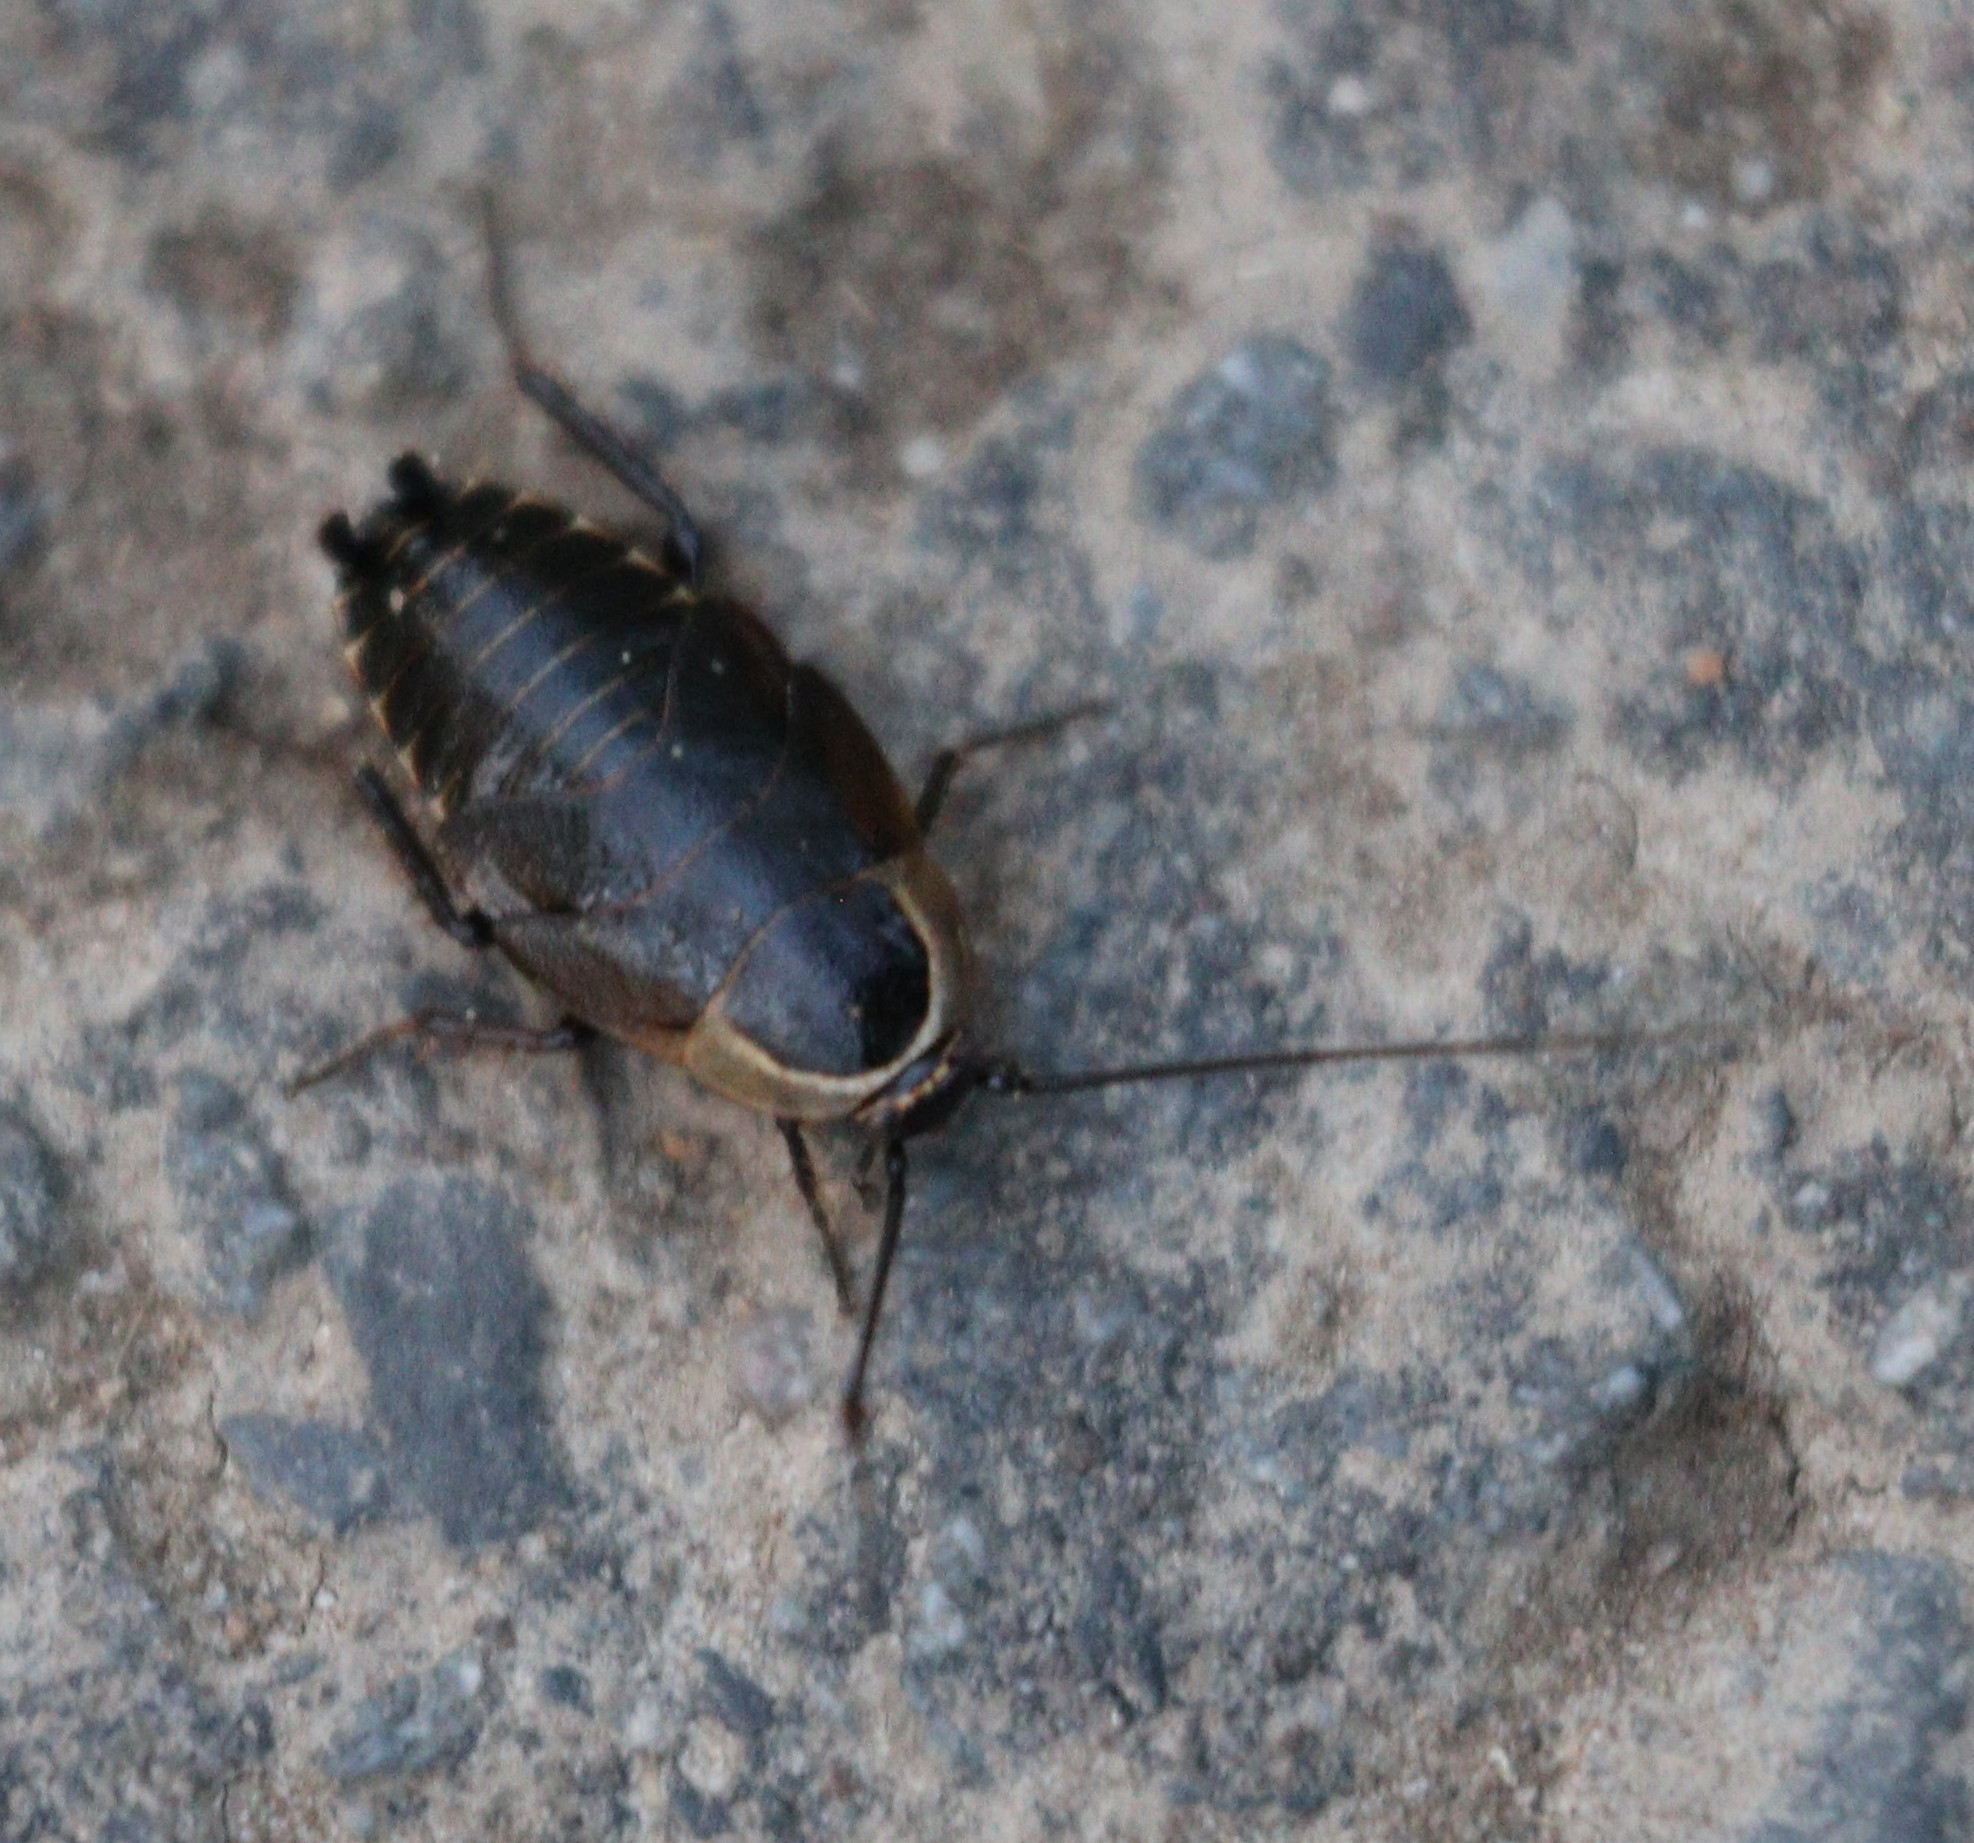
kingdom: Animalia
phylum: Arthropoda
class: Insecta
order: Blattodea
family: Ectobiidae
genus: Ectobius
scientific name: Ectobius sylvestris
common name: Forest cockroach
